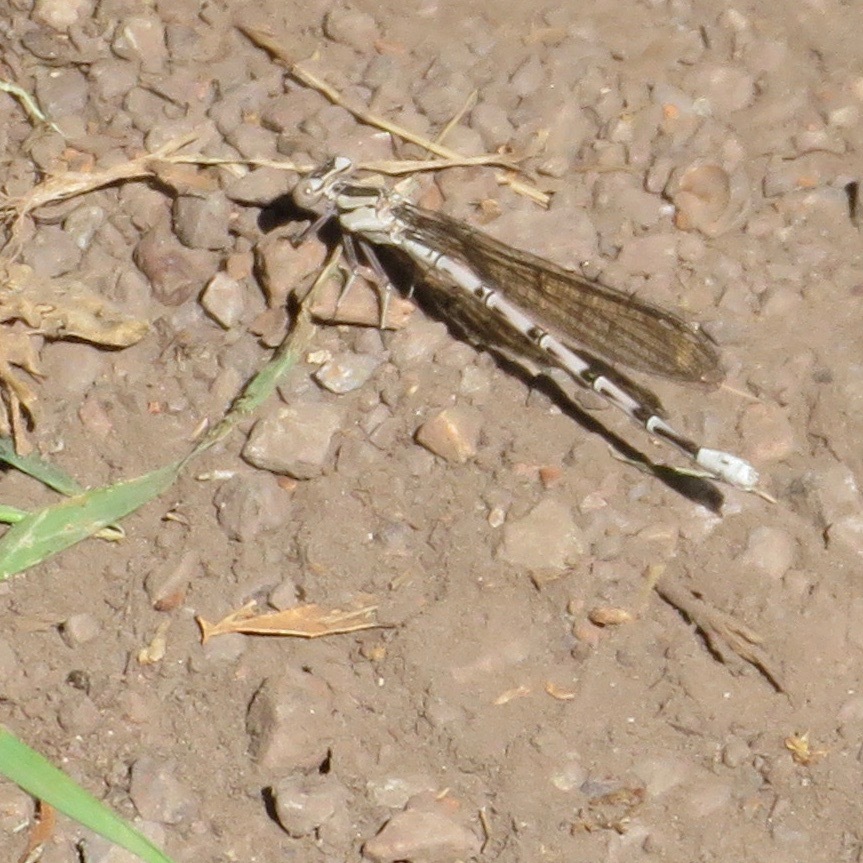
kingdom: Animalia
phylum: Arthropoda
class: Insecta
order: Odonata
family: Coenagrionidae
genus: Argia
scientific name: Argia vivida
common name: Vivid dancer
